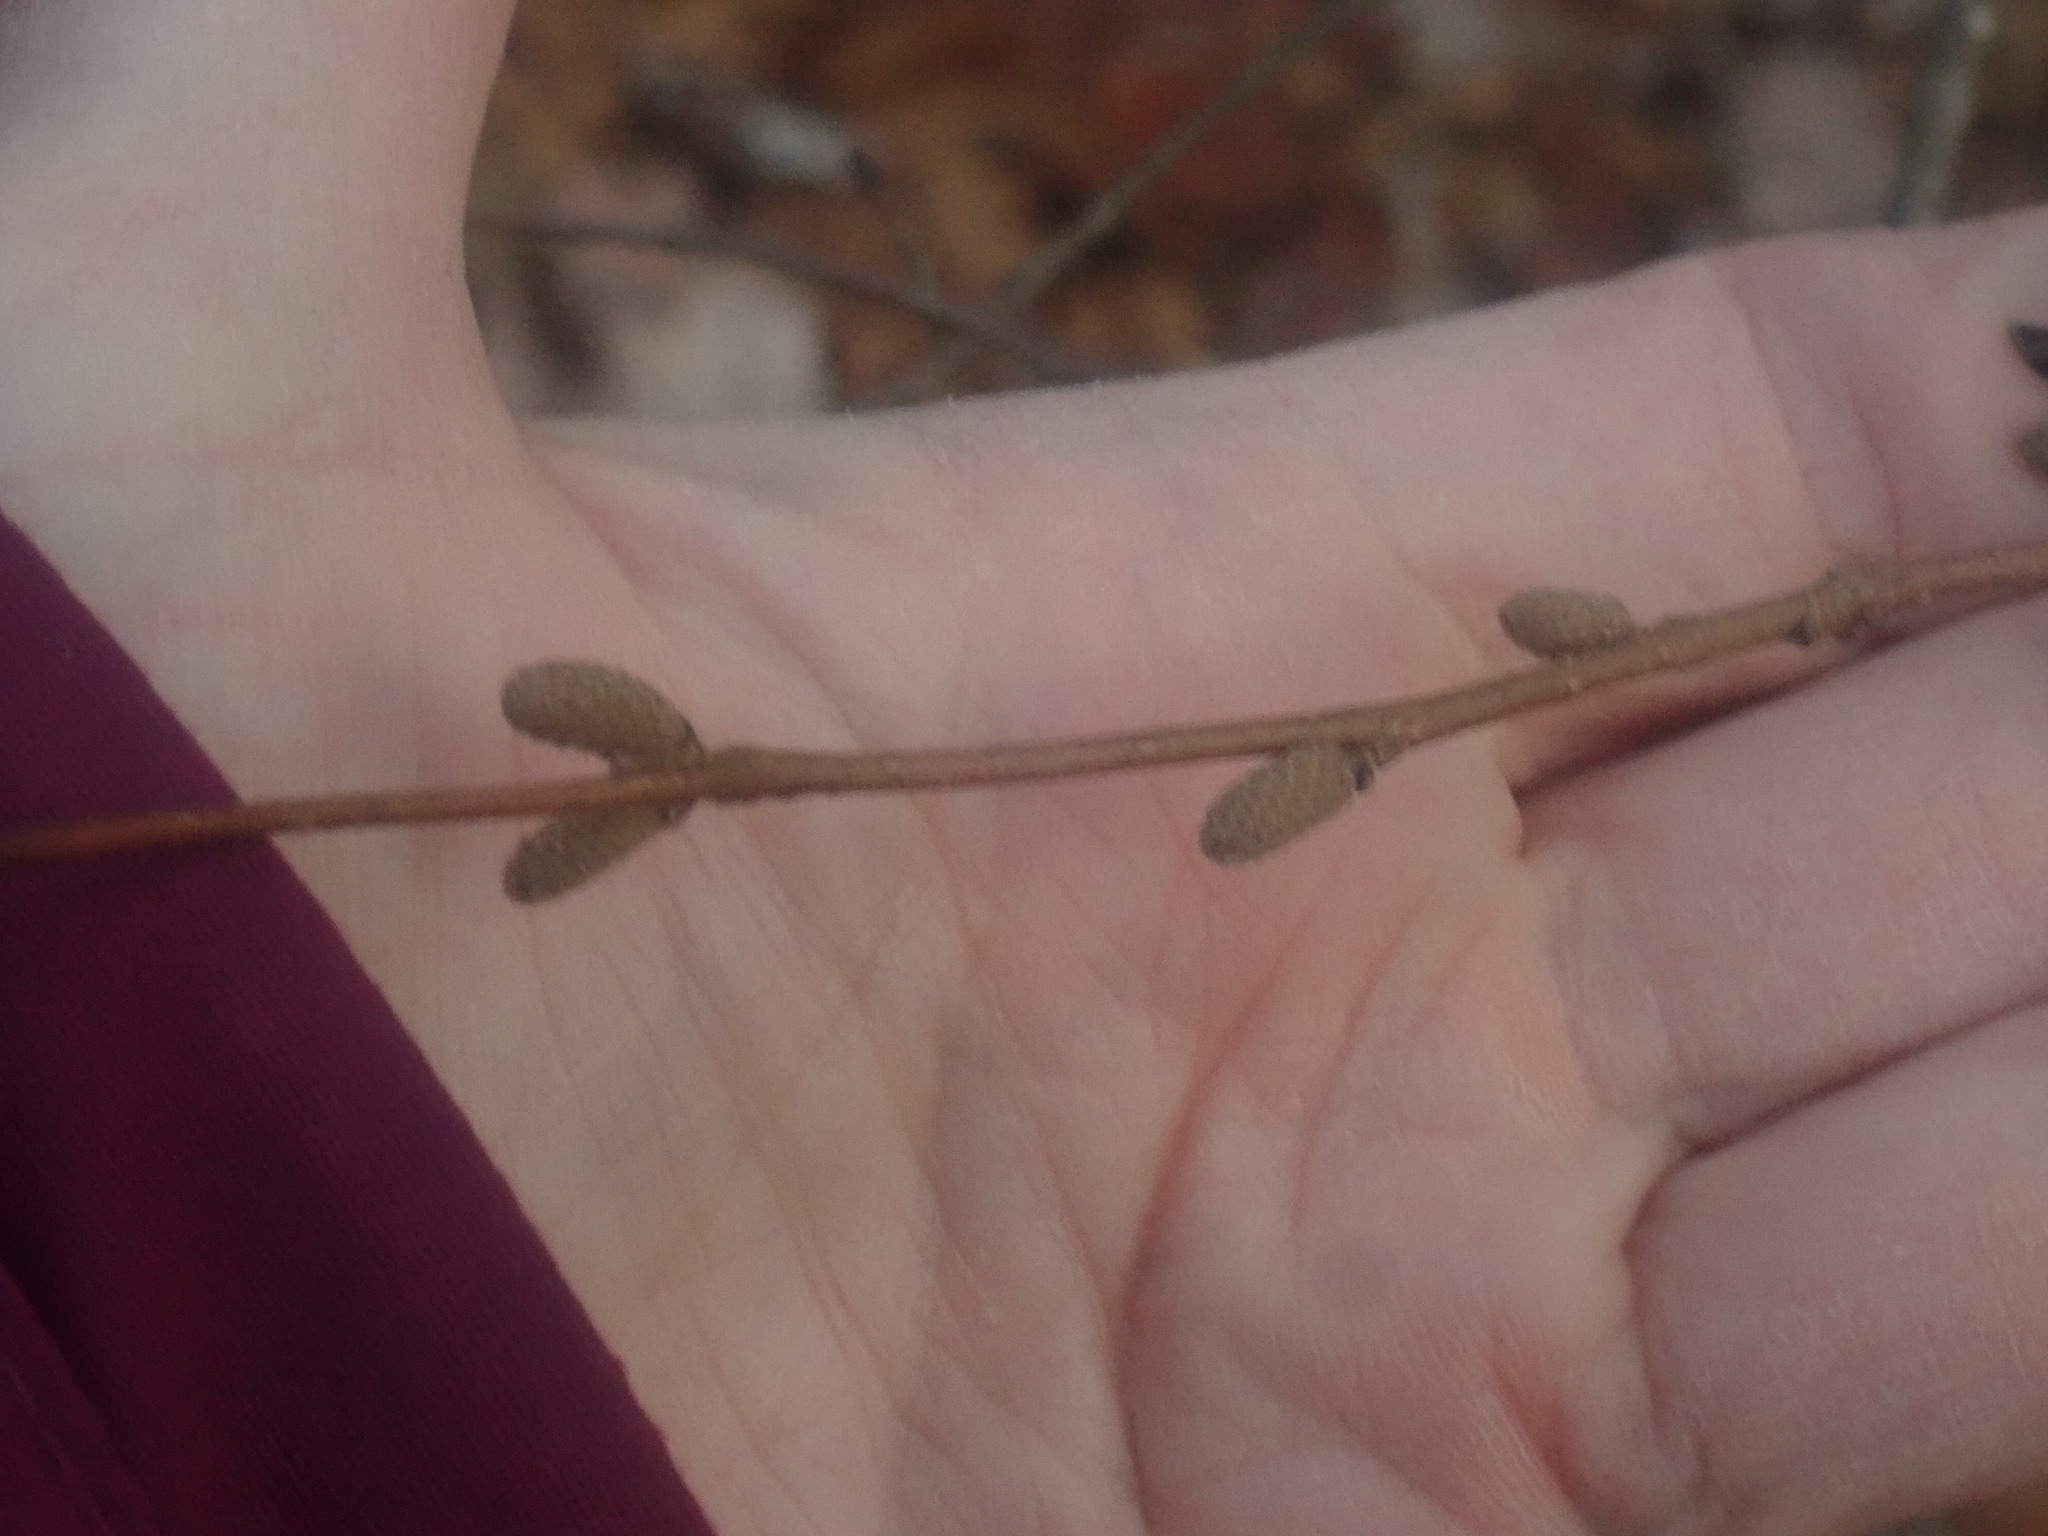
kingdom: Plantae
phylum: Tracheophyta
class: Magnoliopsida
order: Fagales
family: Betulaceae
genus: Corylus
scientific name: Corylus cornuta
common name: Beaked hazel
